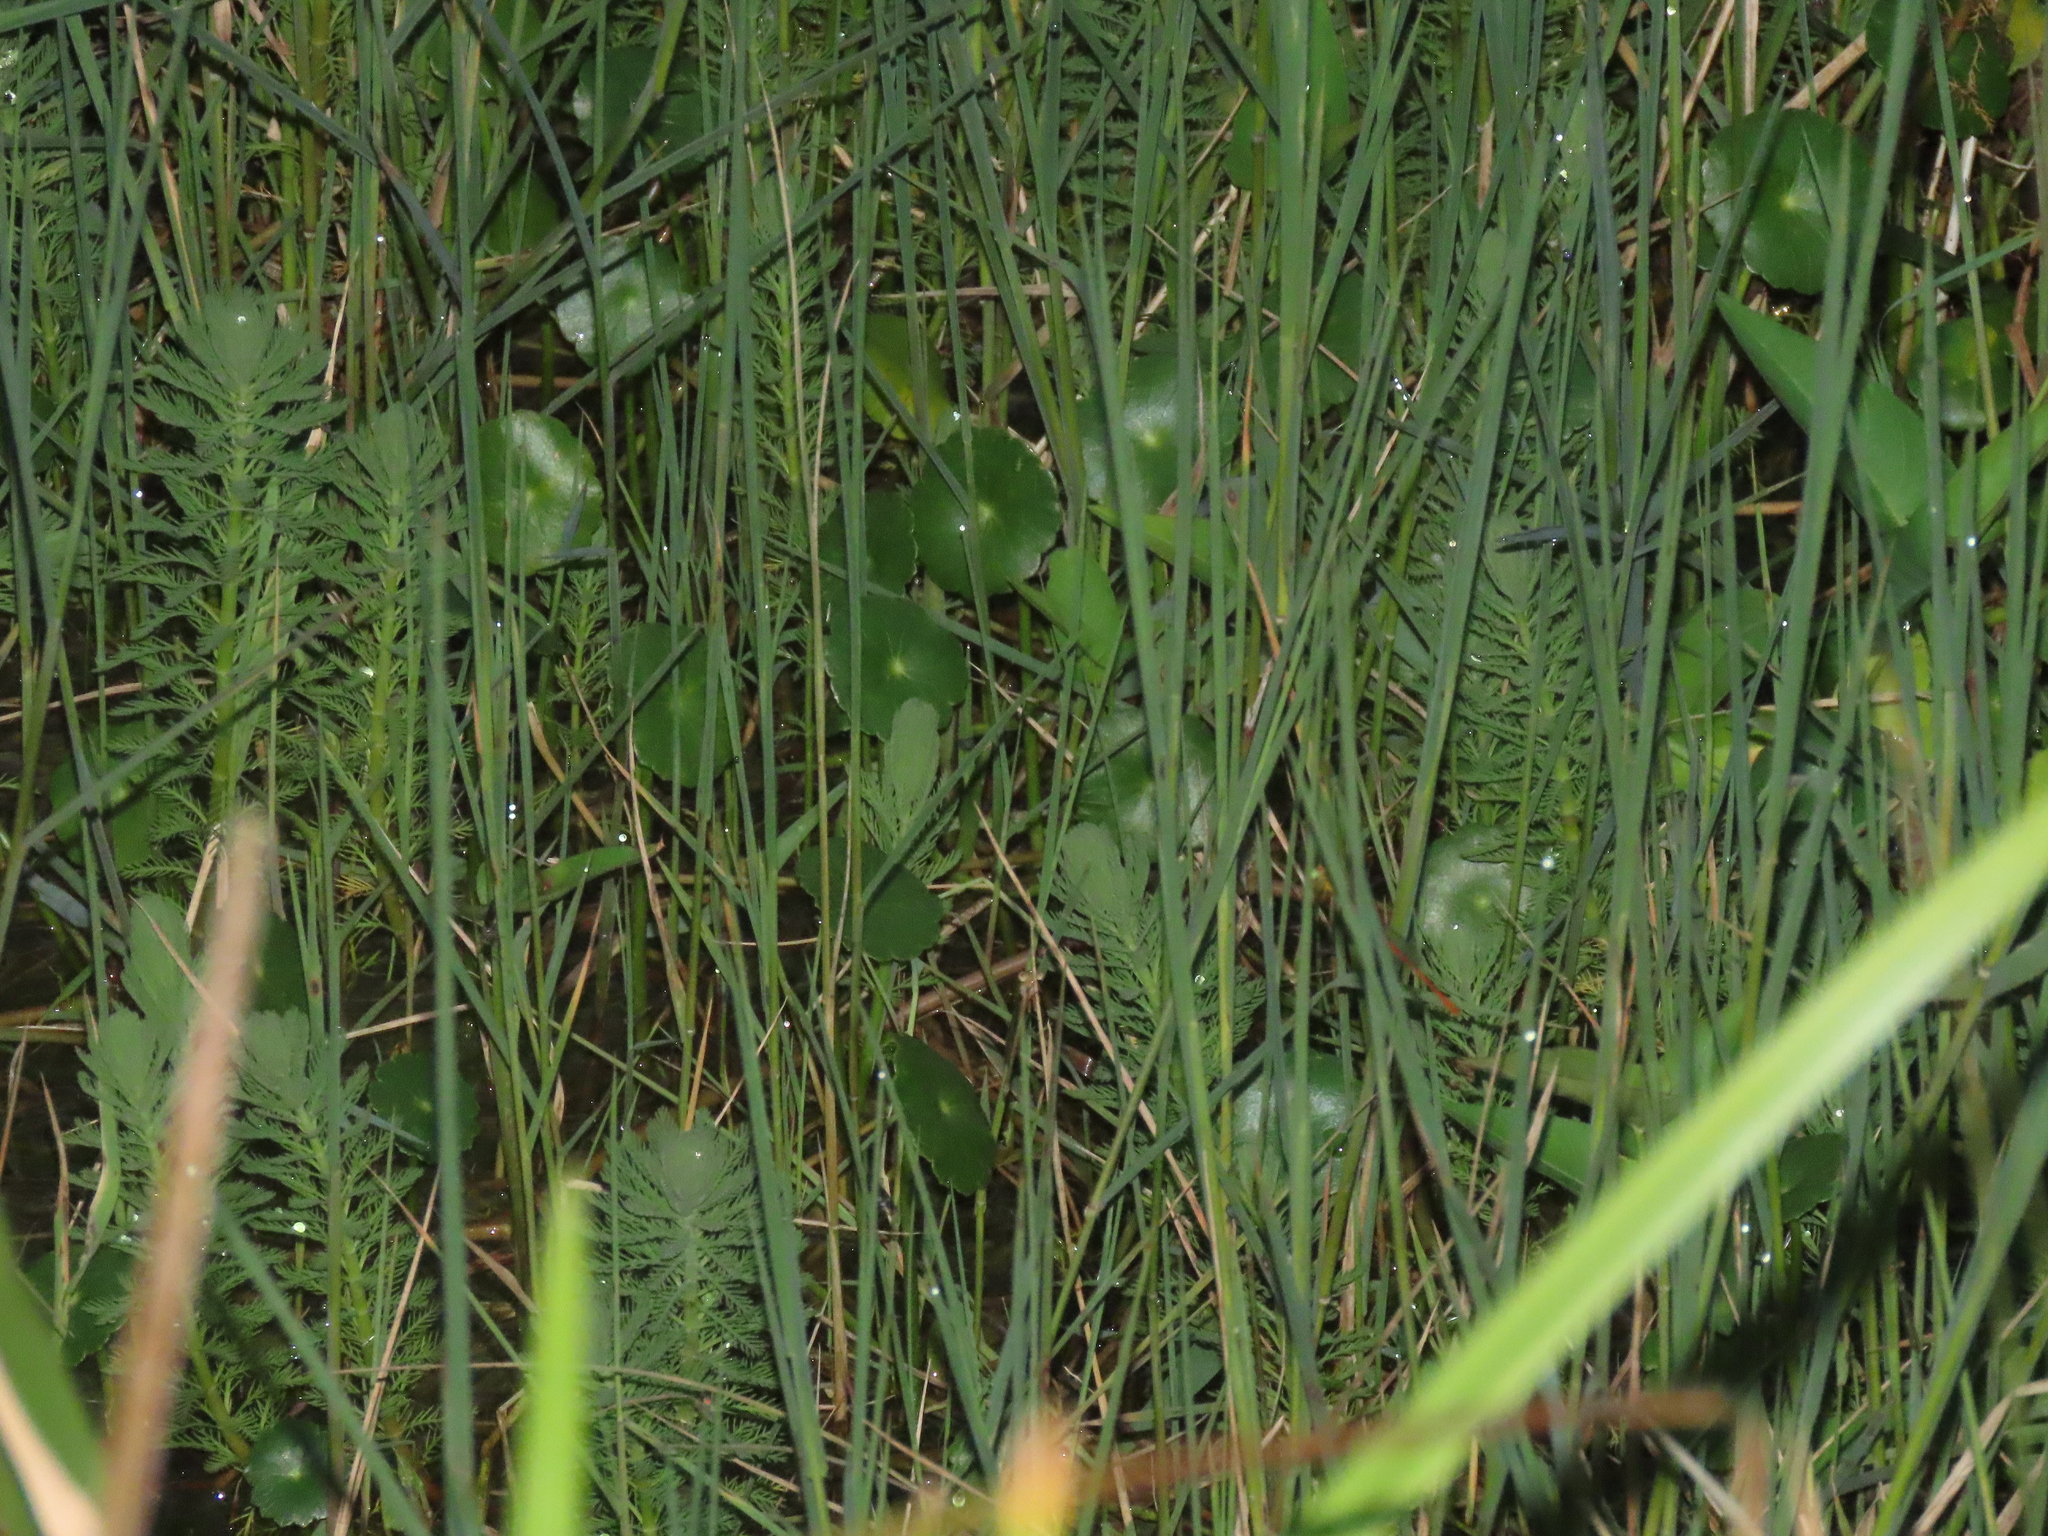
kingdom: Plantae
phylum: Tracheophyta
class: Magnoliopsida
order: Saxifragales
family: Haloragaceae
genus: Myriophyllum
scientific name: Myriophyllum aquaticum
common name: Parrot's feather
